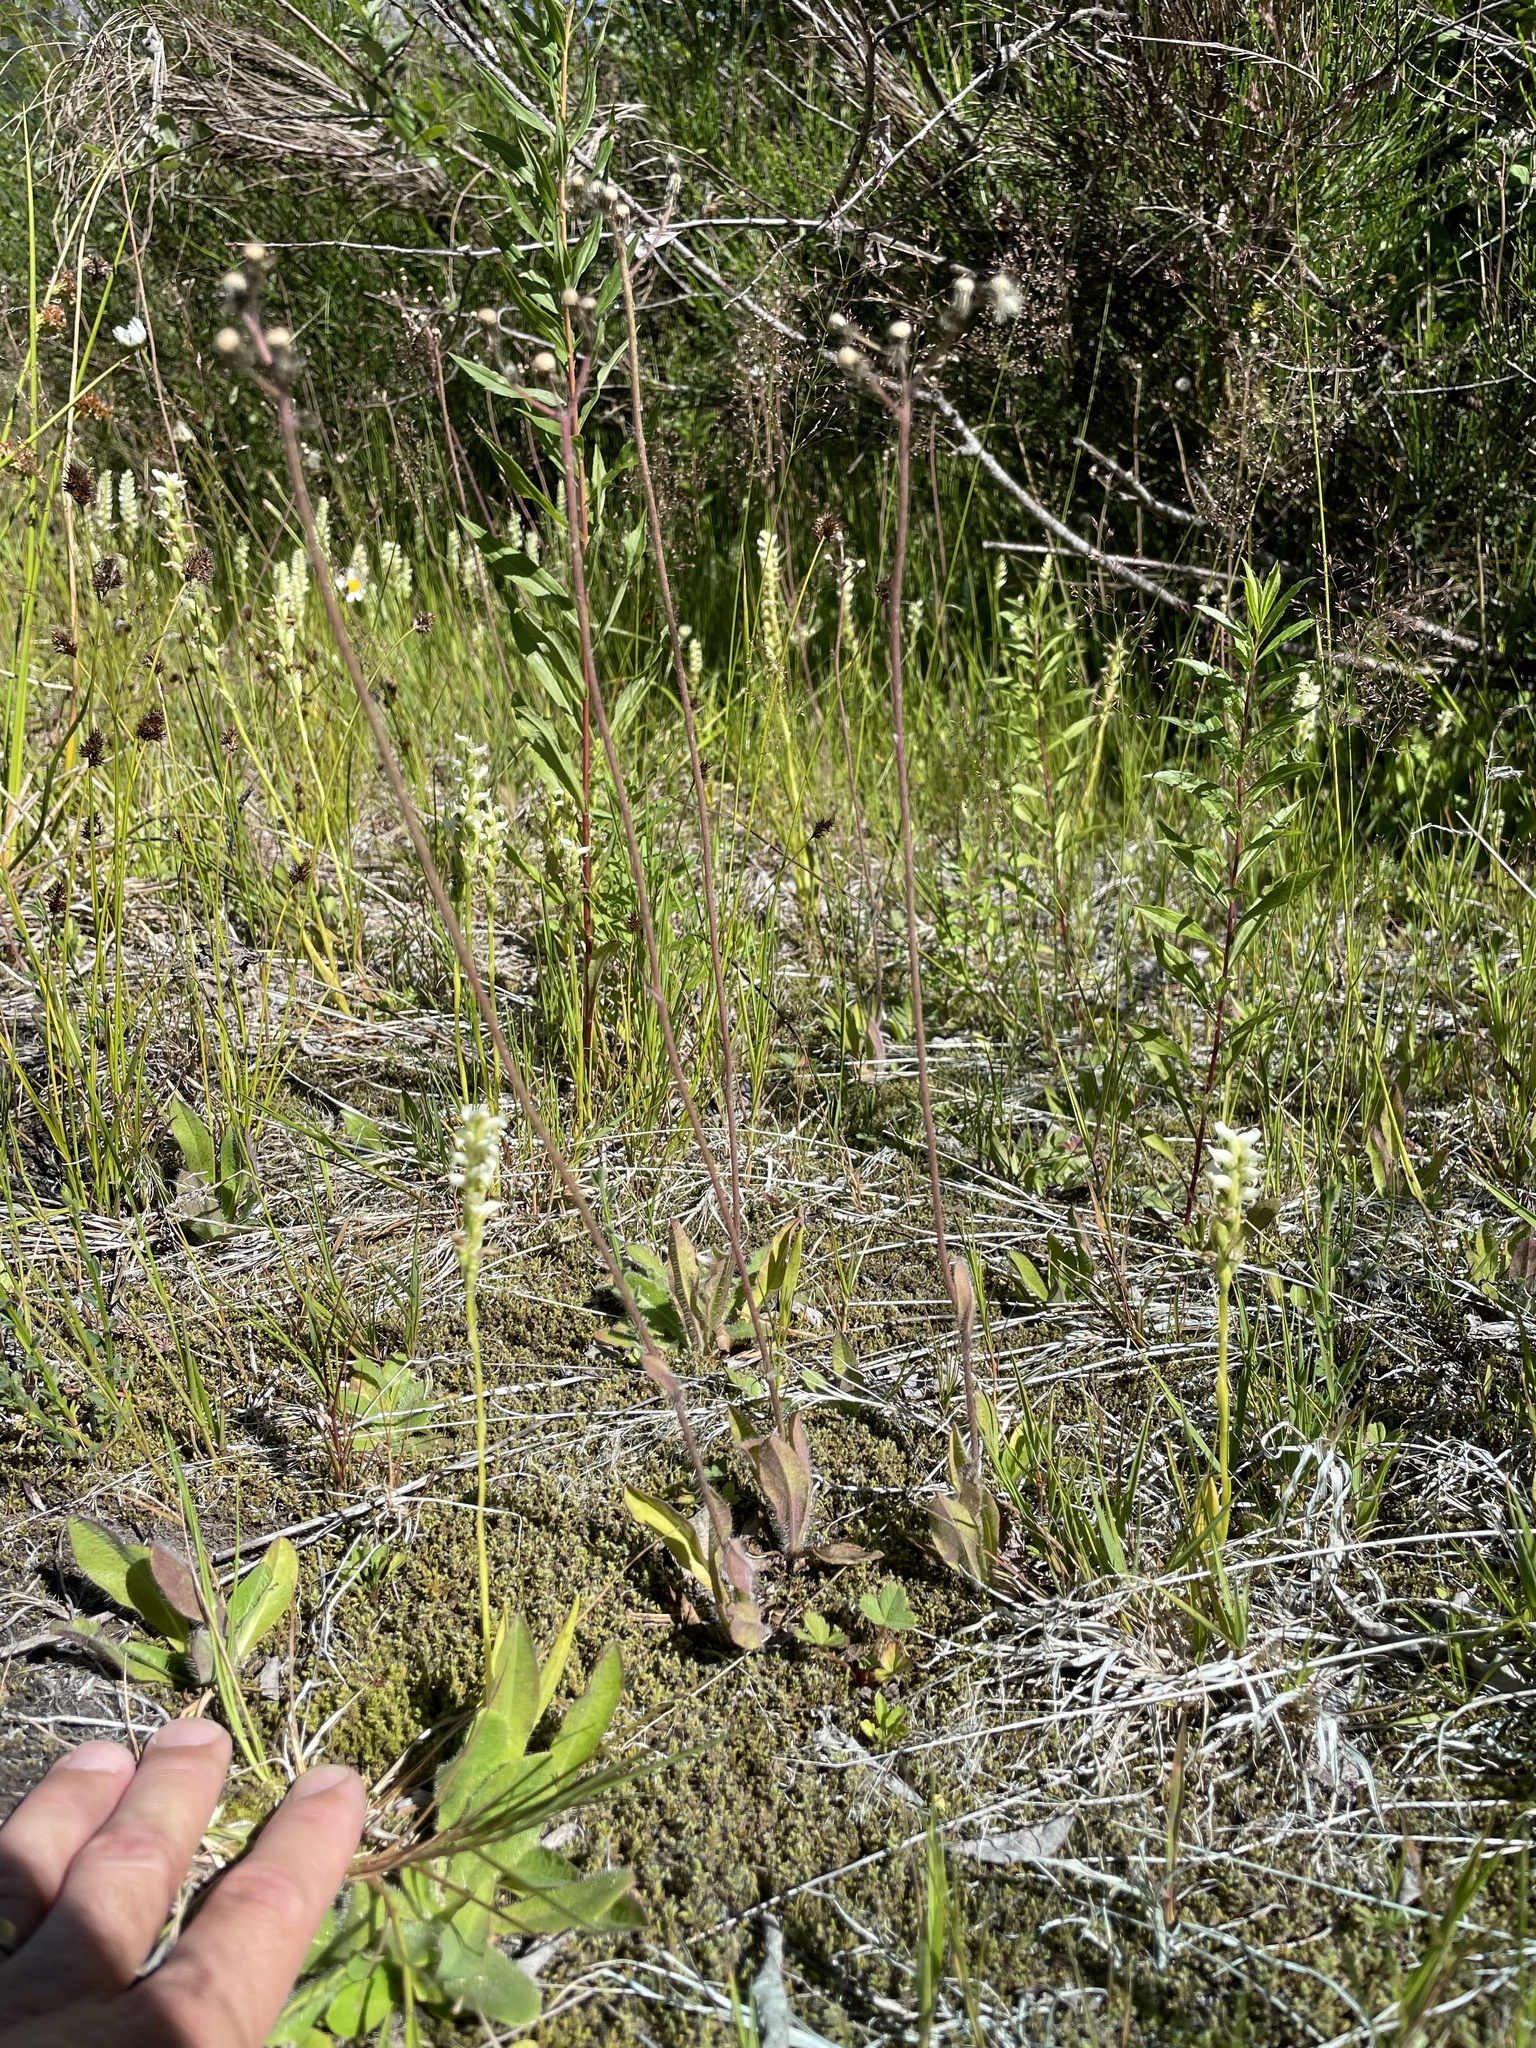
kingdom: Plantae
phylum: Tracheophyta
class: Liliopsida
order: Asparagales
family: Orchidaceae
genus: Spiranthes
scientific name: Spiranthes romanzoffiana
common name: Irish lady's-tresses
